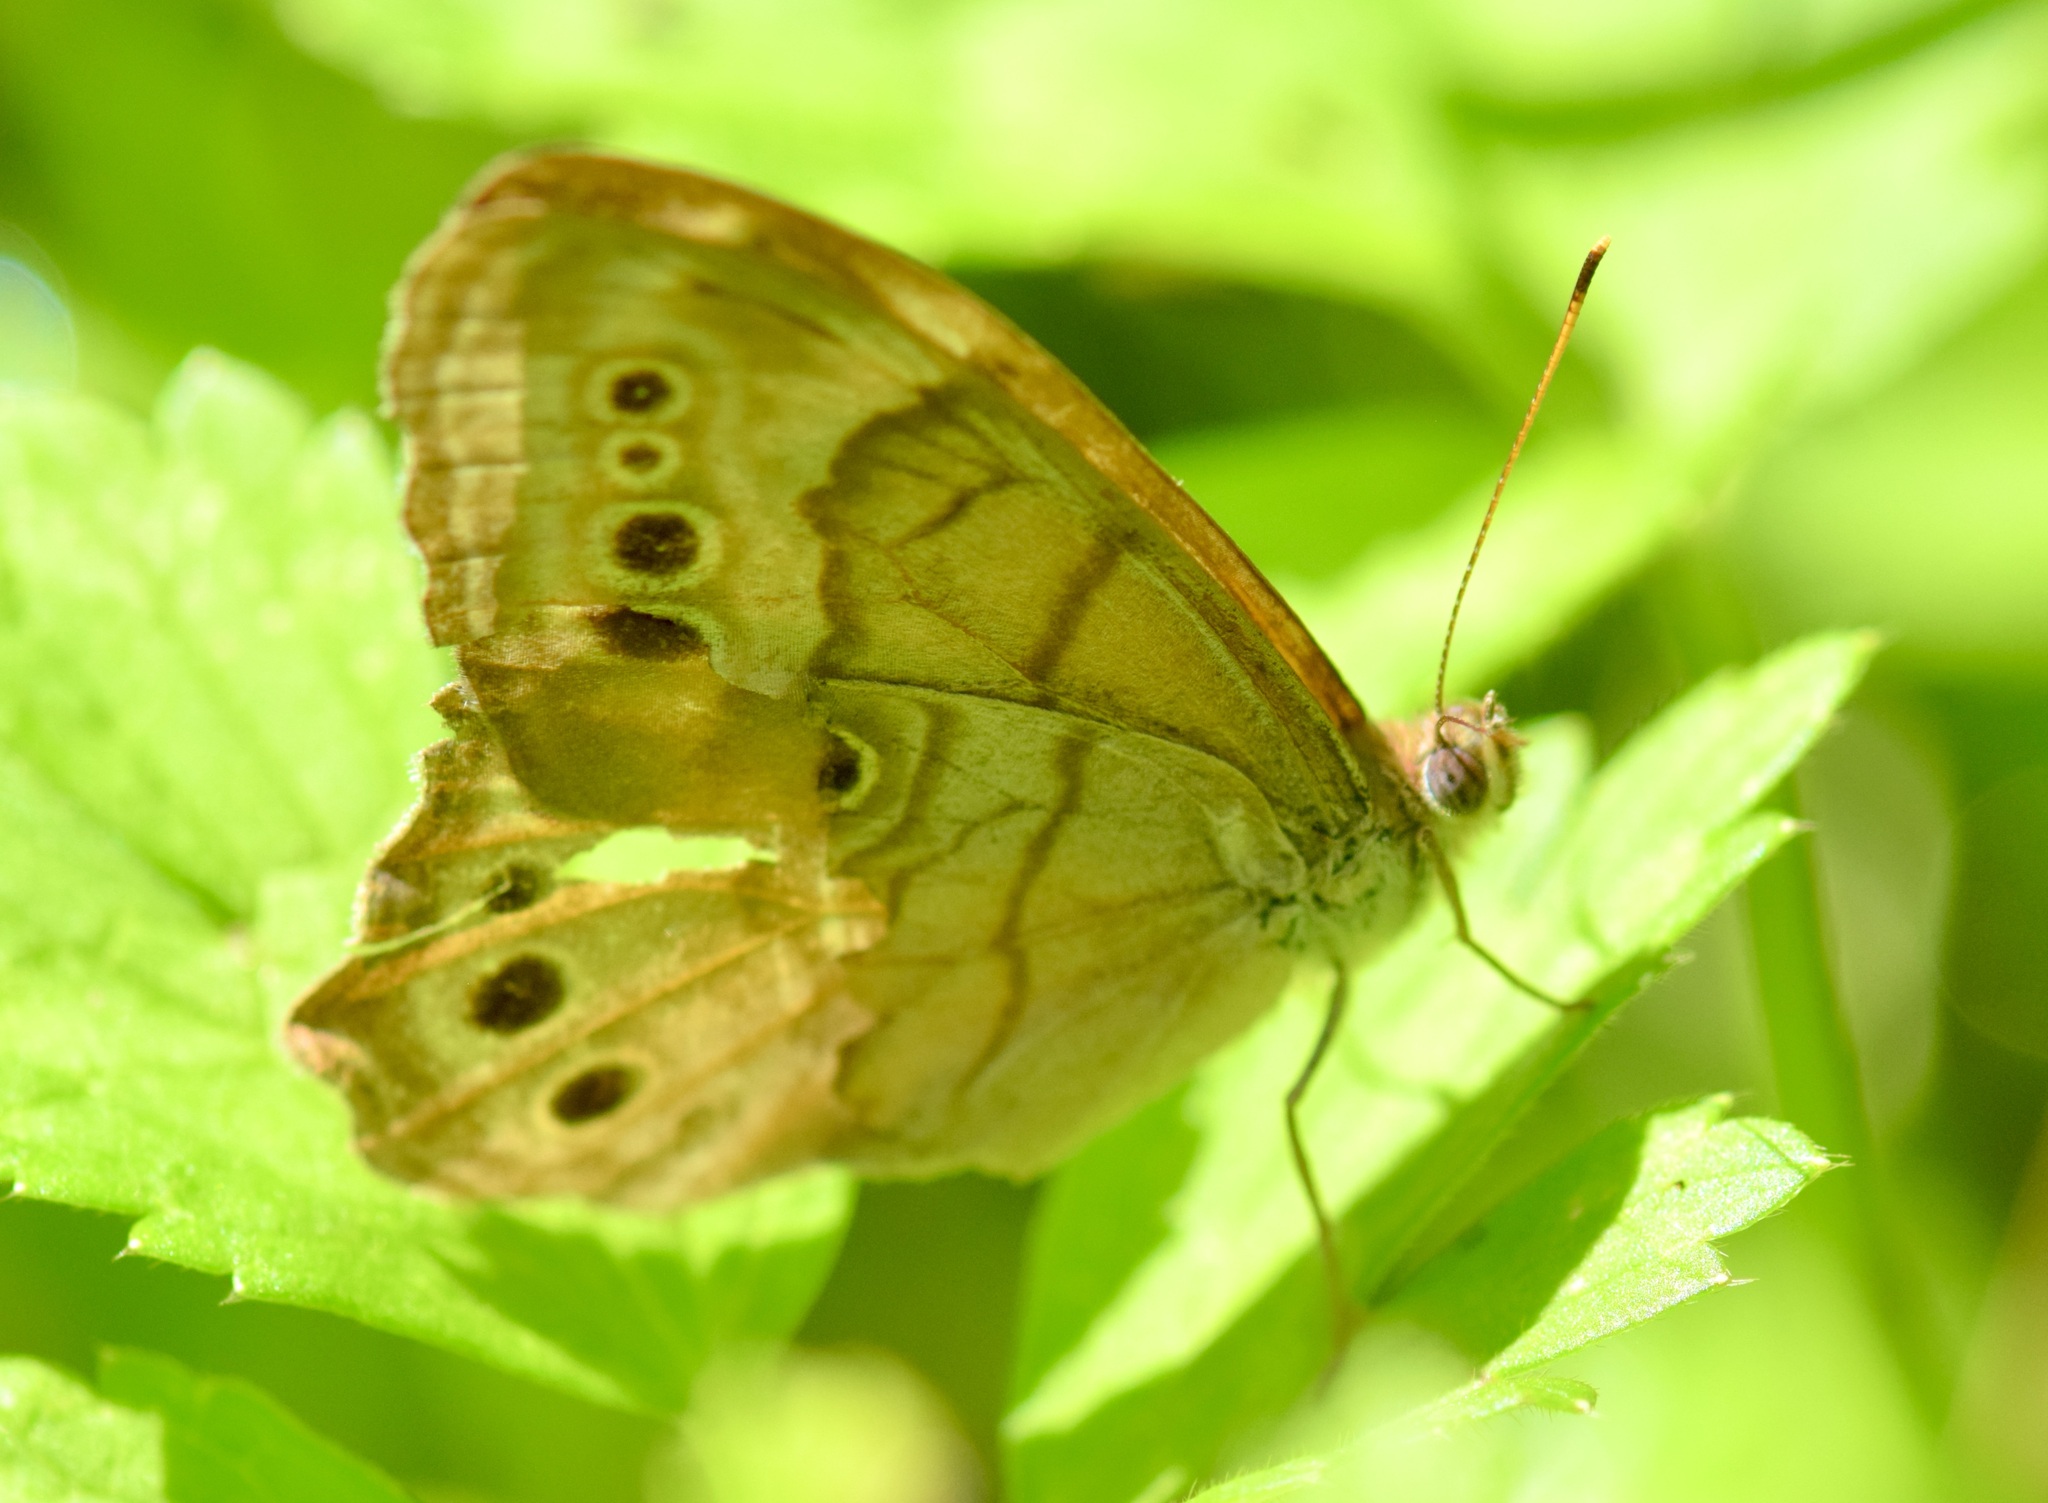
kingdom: Animalia
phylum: Arthropoda
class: Insecta
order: Lepidoptera
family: Nymphalidae
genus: Lethe
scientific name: Lethe anthedon
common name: Northern pearly-eye
